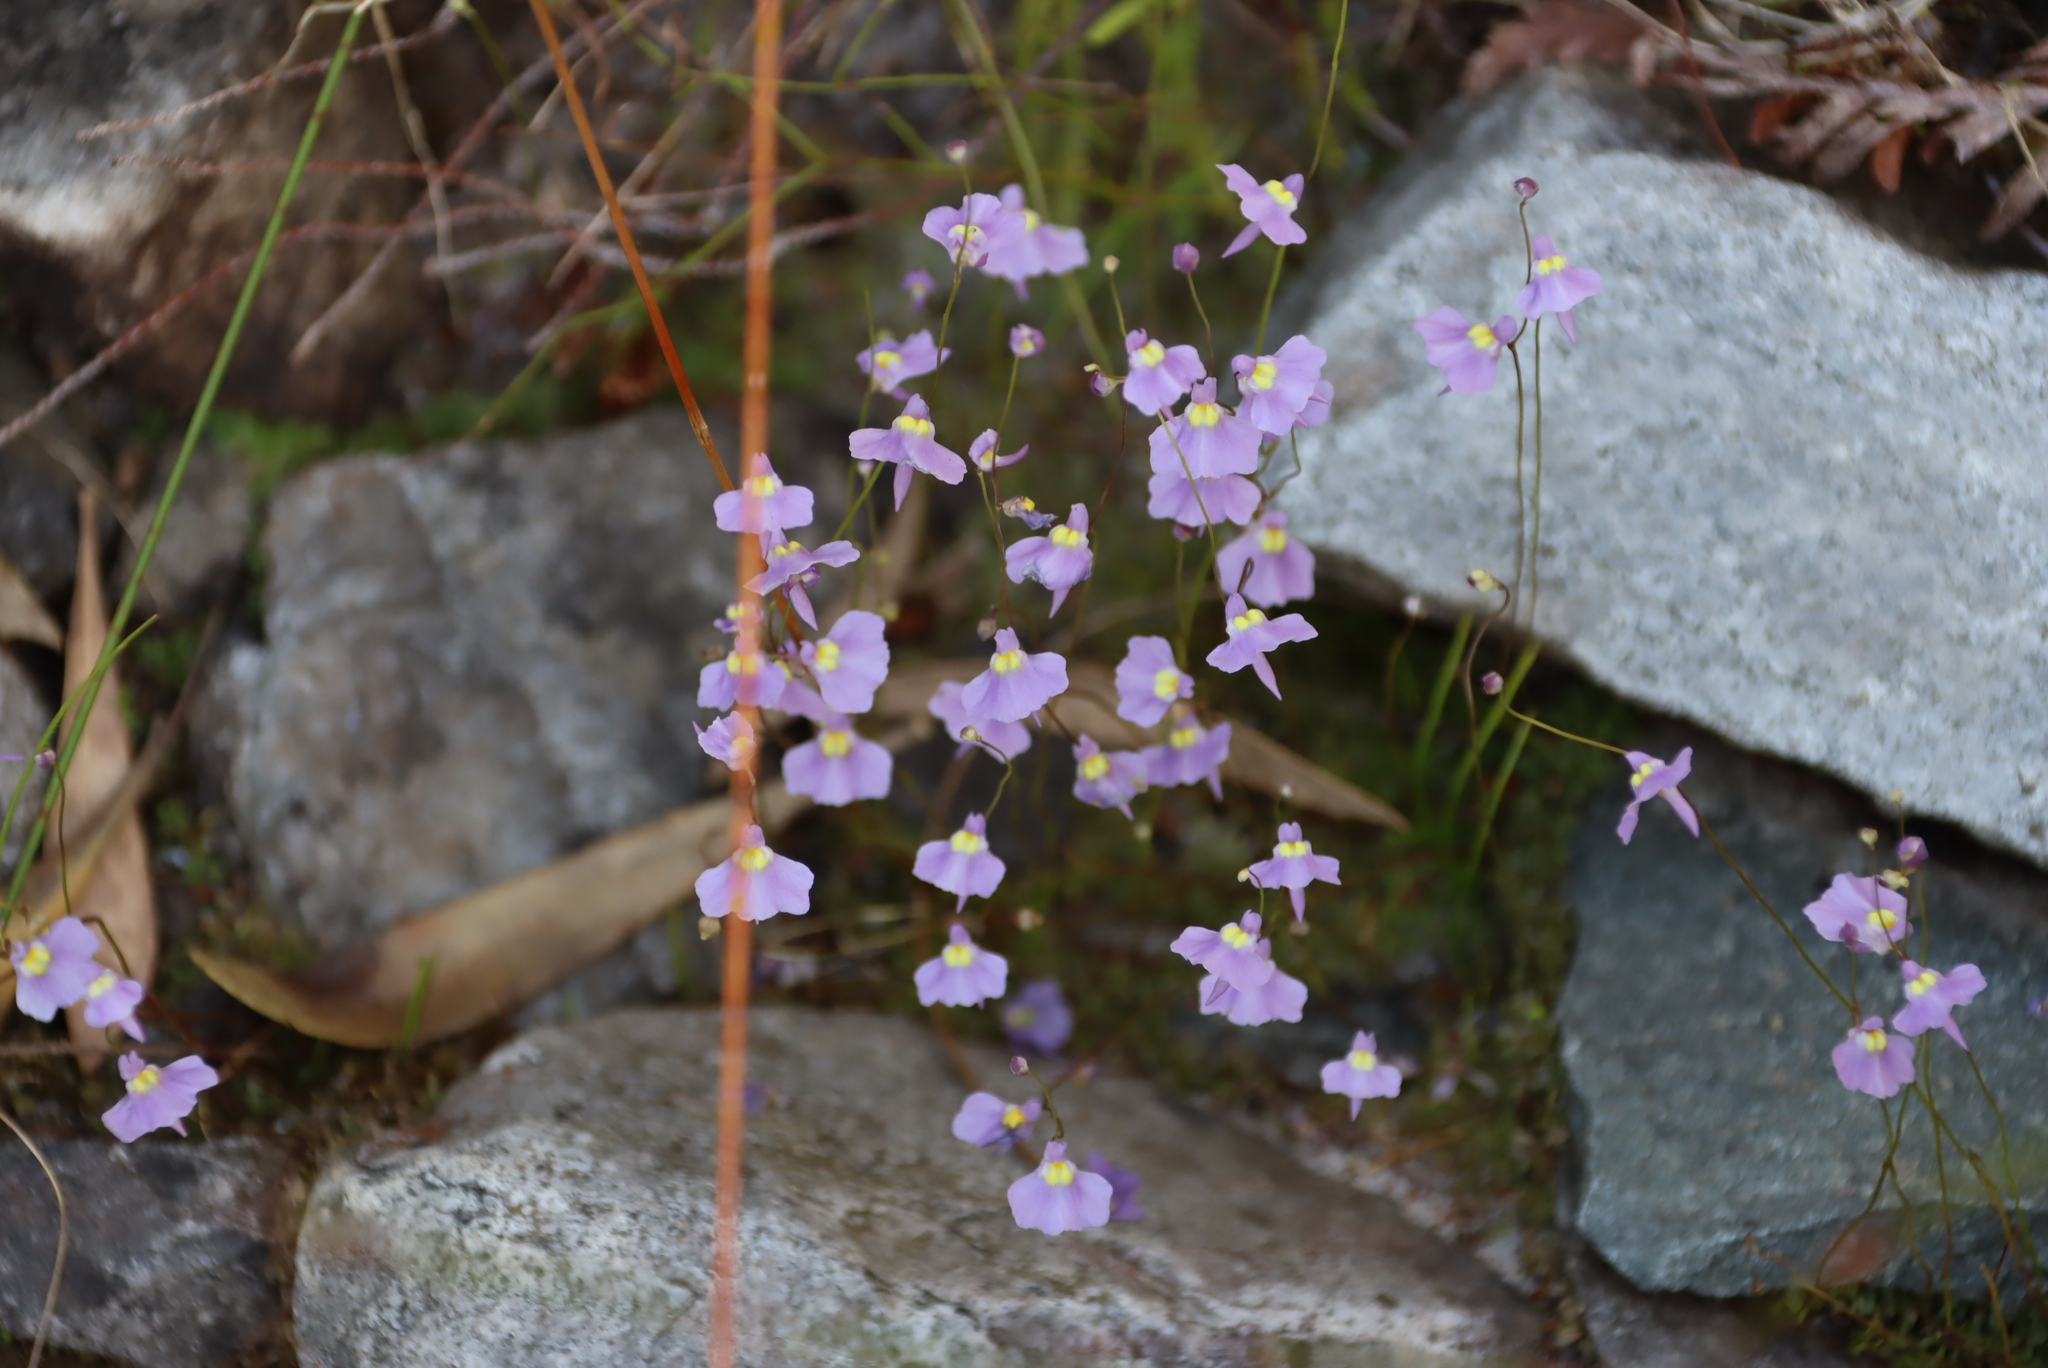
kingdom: Plantae
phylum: Tracheophyta
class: Magnoliopsida
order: Lamiales
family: Lentibulariaceae
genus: Utricularia
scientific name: Utricularia bisquamata
